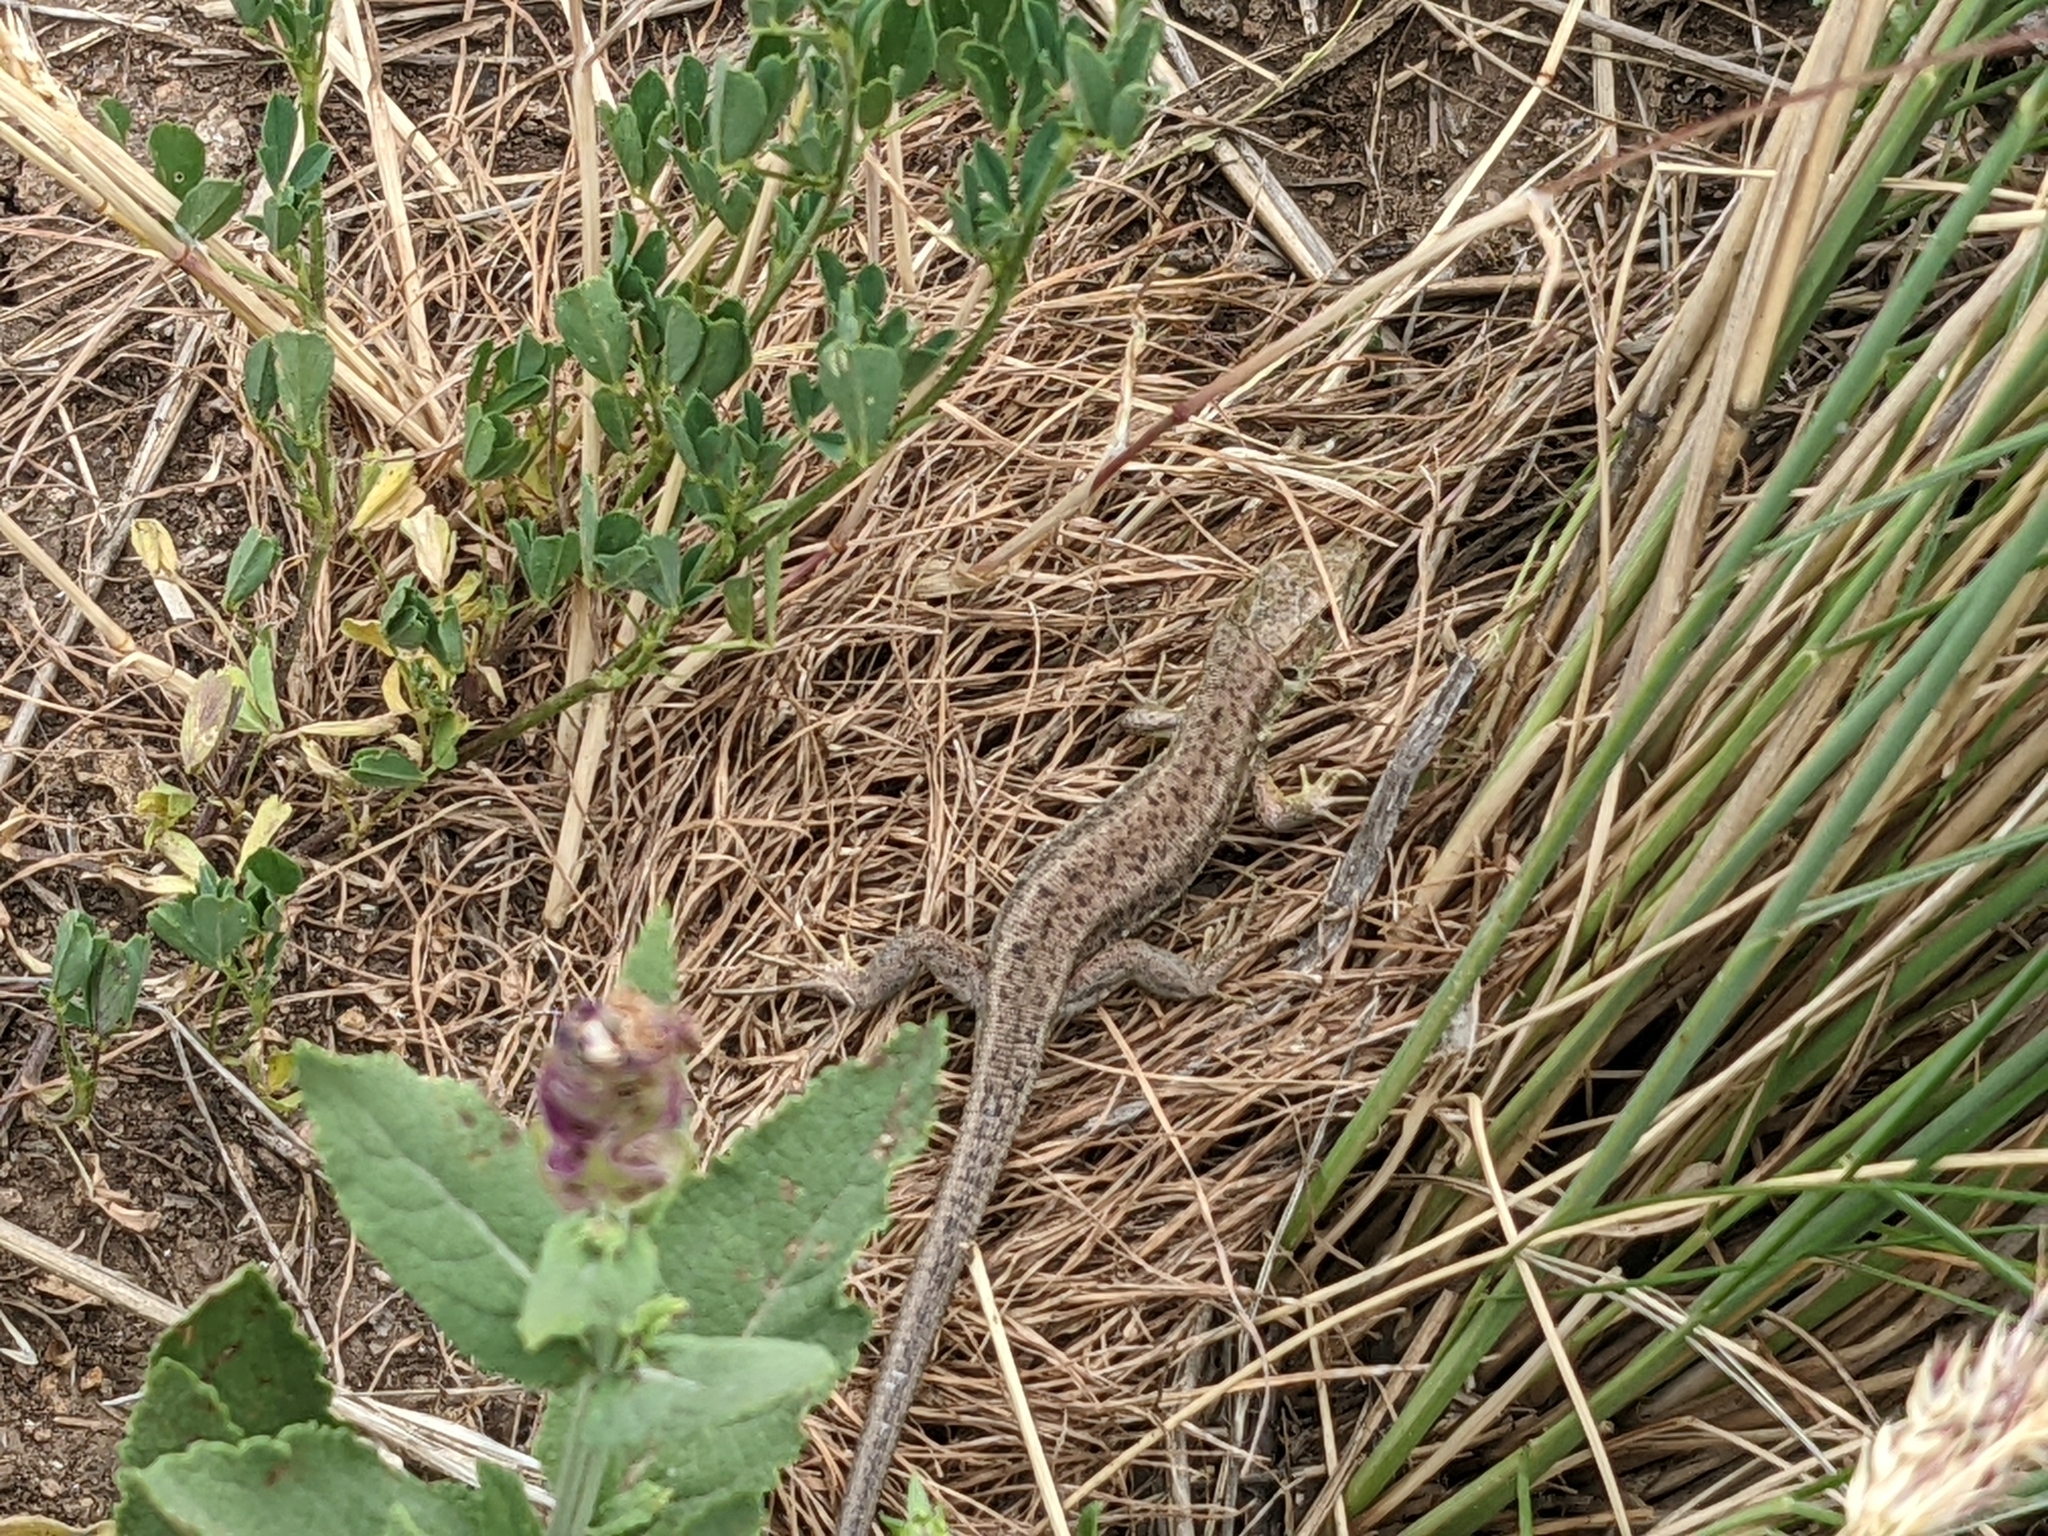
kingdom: Animalia
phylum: Chordata
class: Squamata
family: Lacertidae
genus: Lacerta
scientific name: Lacerta viridis
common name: European green lizard
